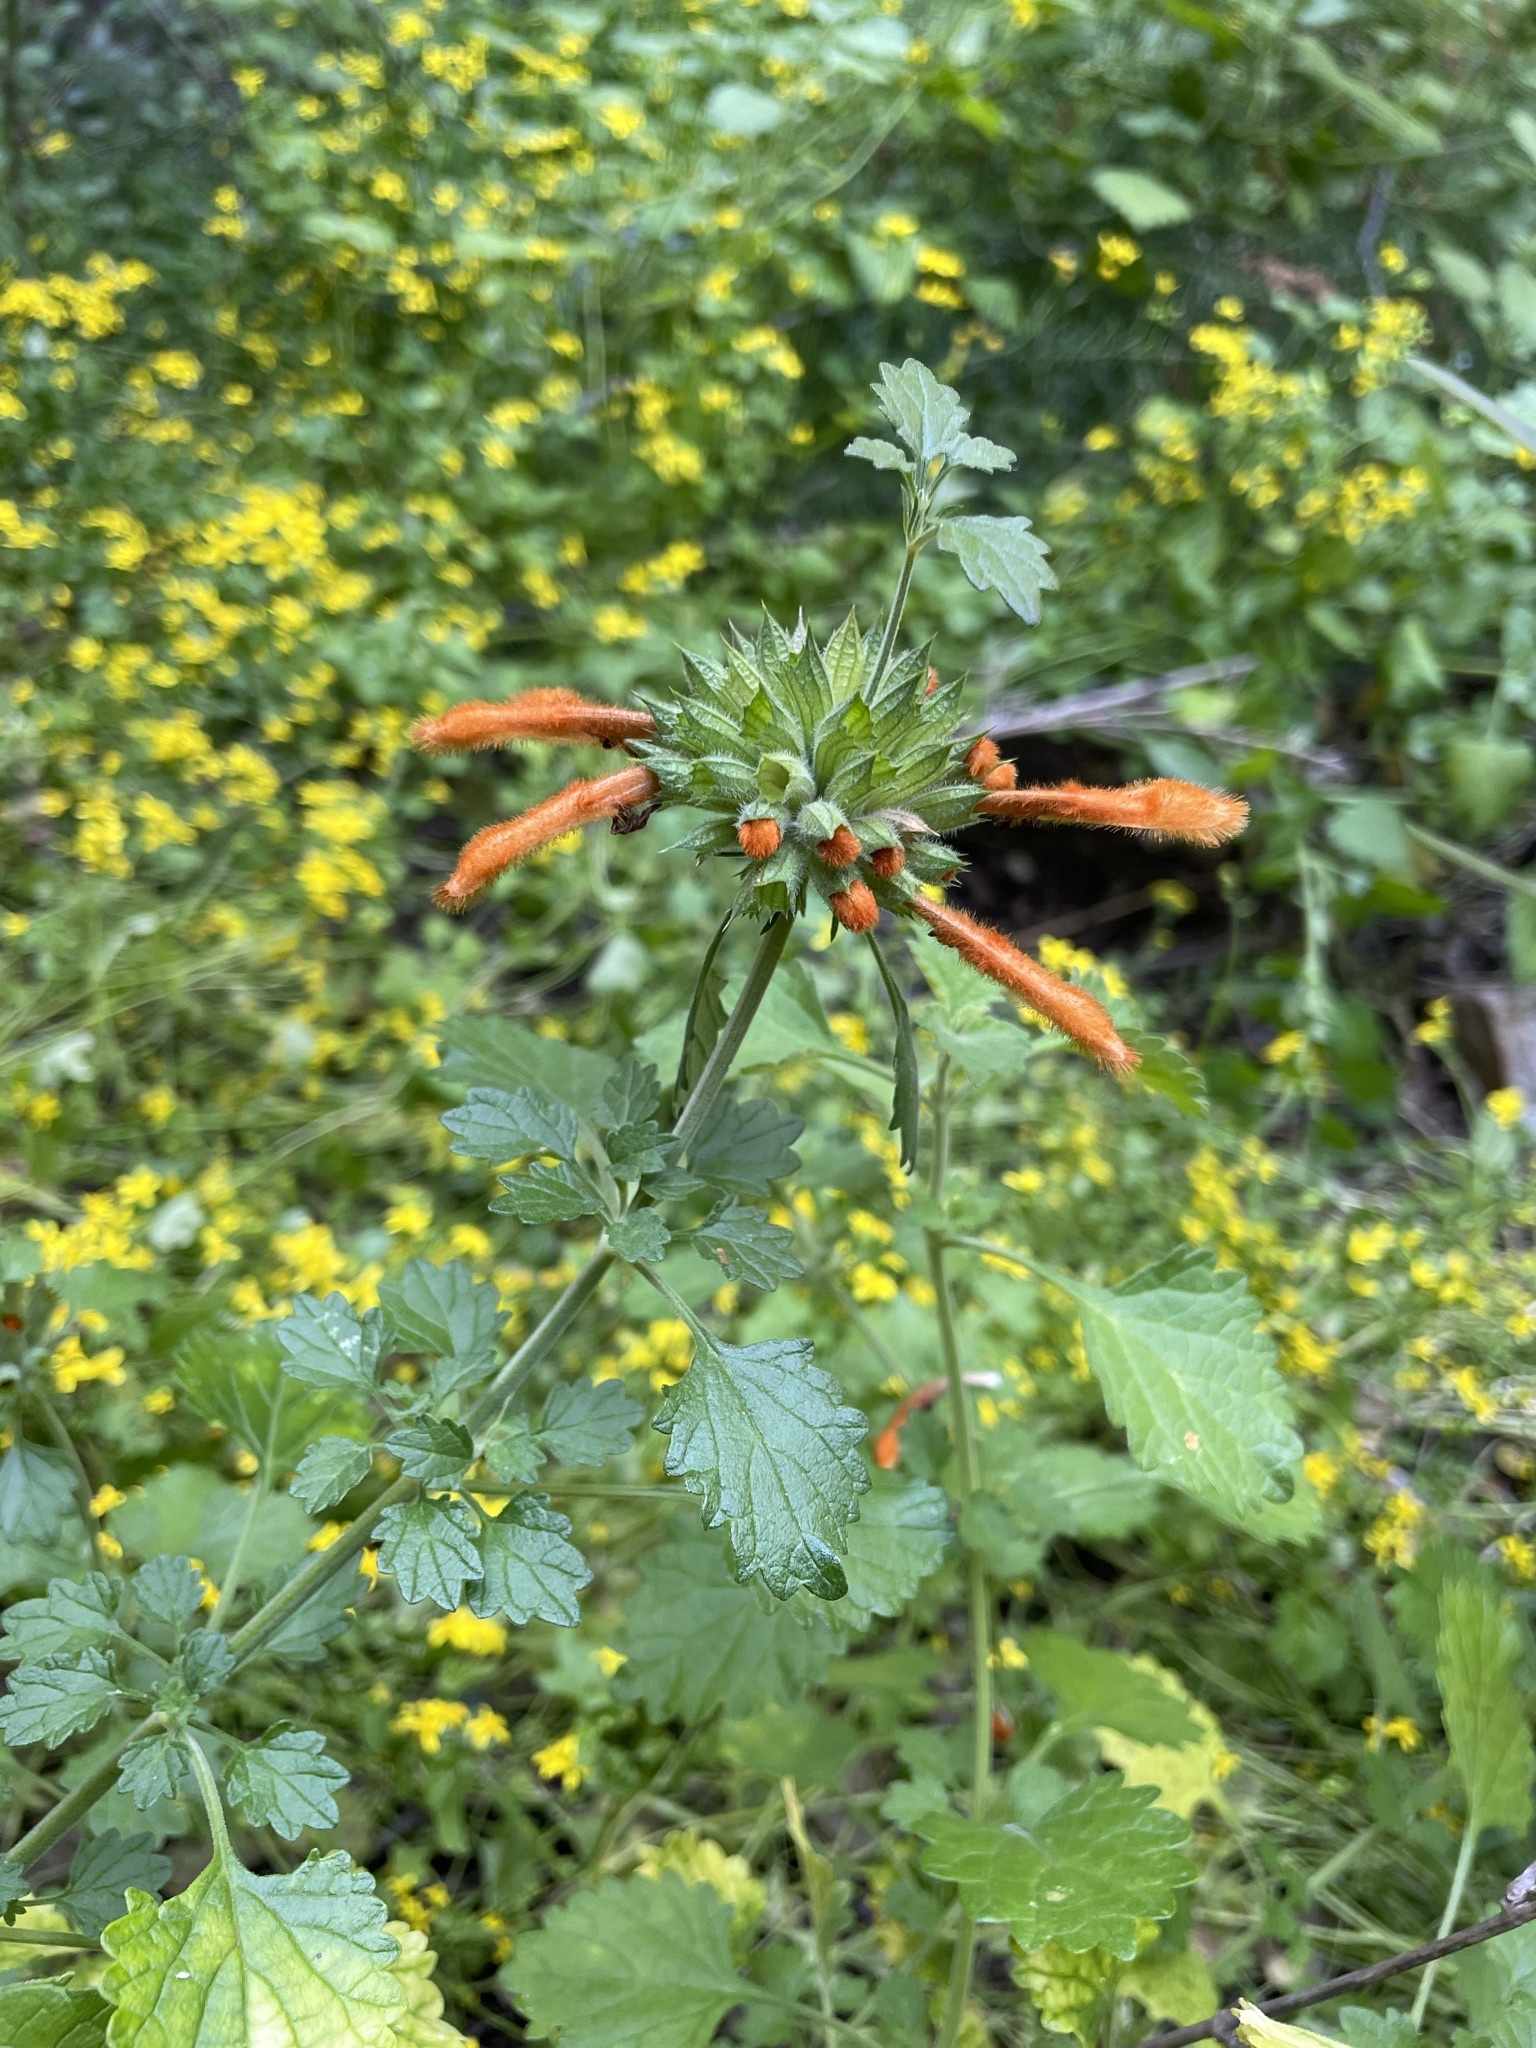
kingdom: Plantae
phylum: Tracheophyta
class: Magnoliopsida
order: Lamiales
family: Lamiaceae
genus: Leonotis
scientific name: Leonotis ocymifolia
